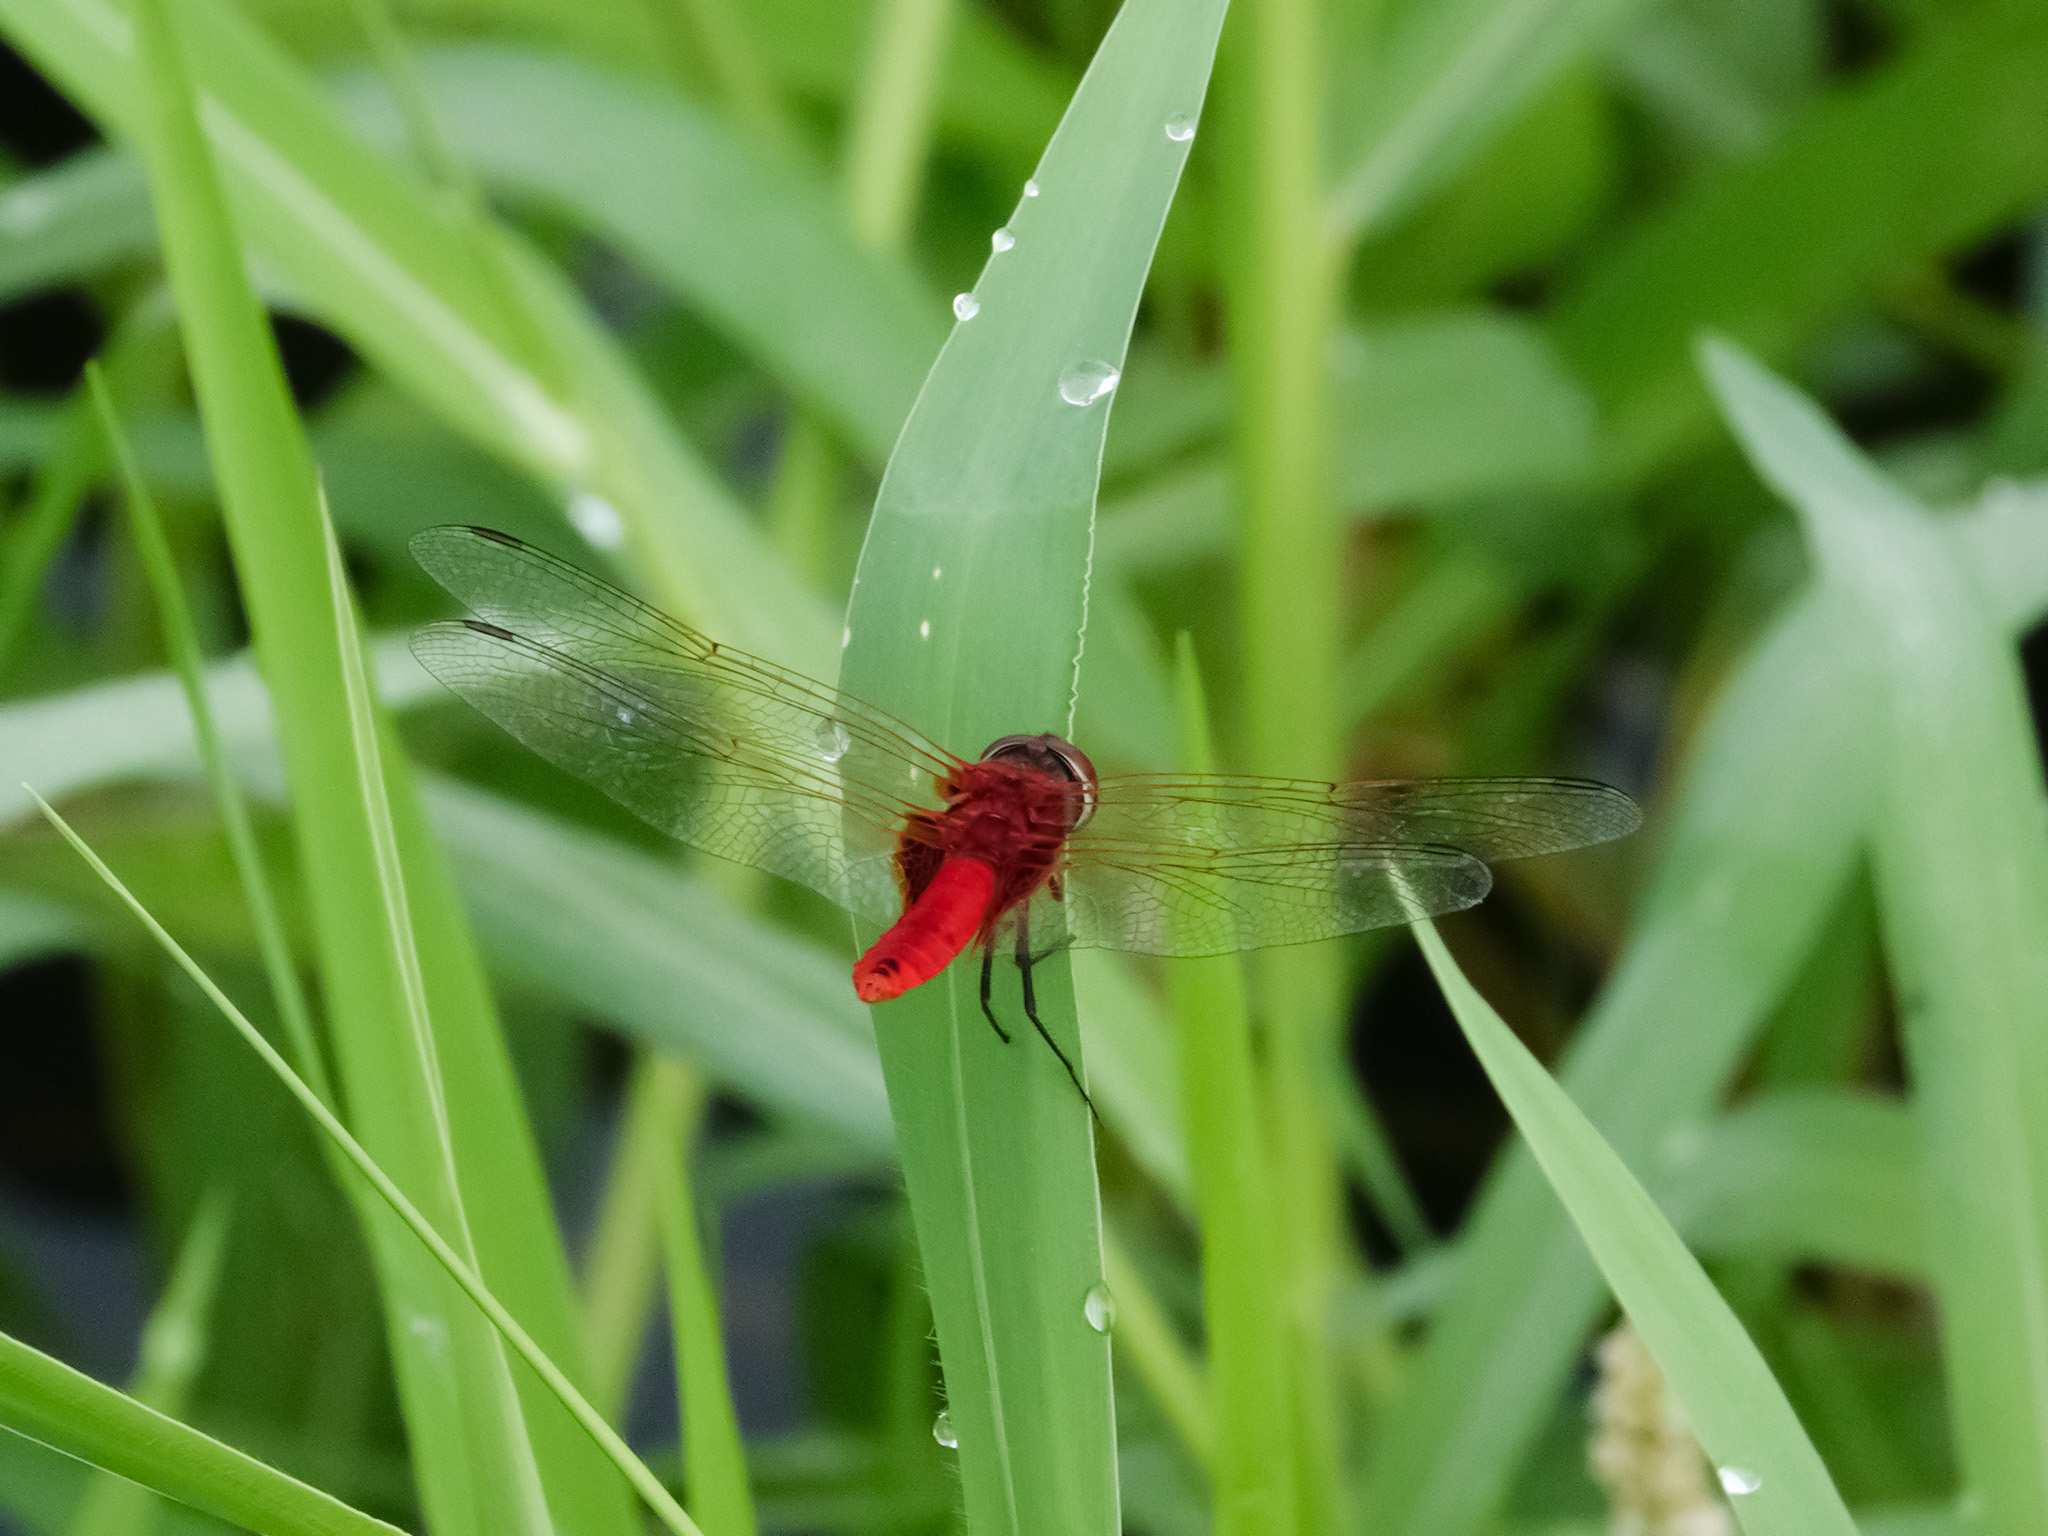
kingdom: Animalia
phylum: Arthropoda
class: Insecta
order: Odonata
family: Libellulidae
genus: Urothemis
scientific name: Urothemis signata
